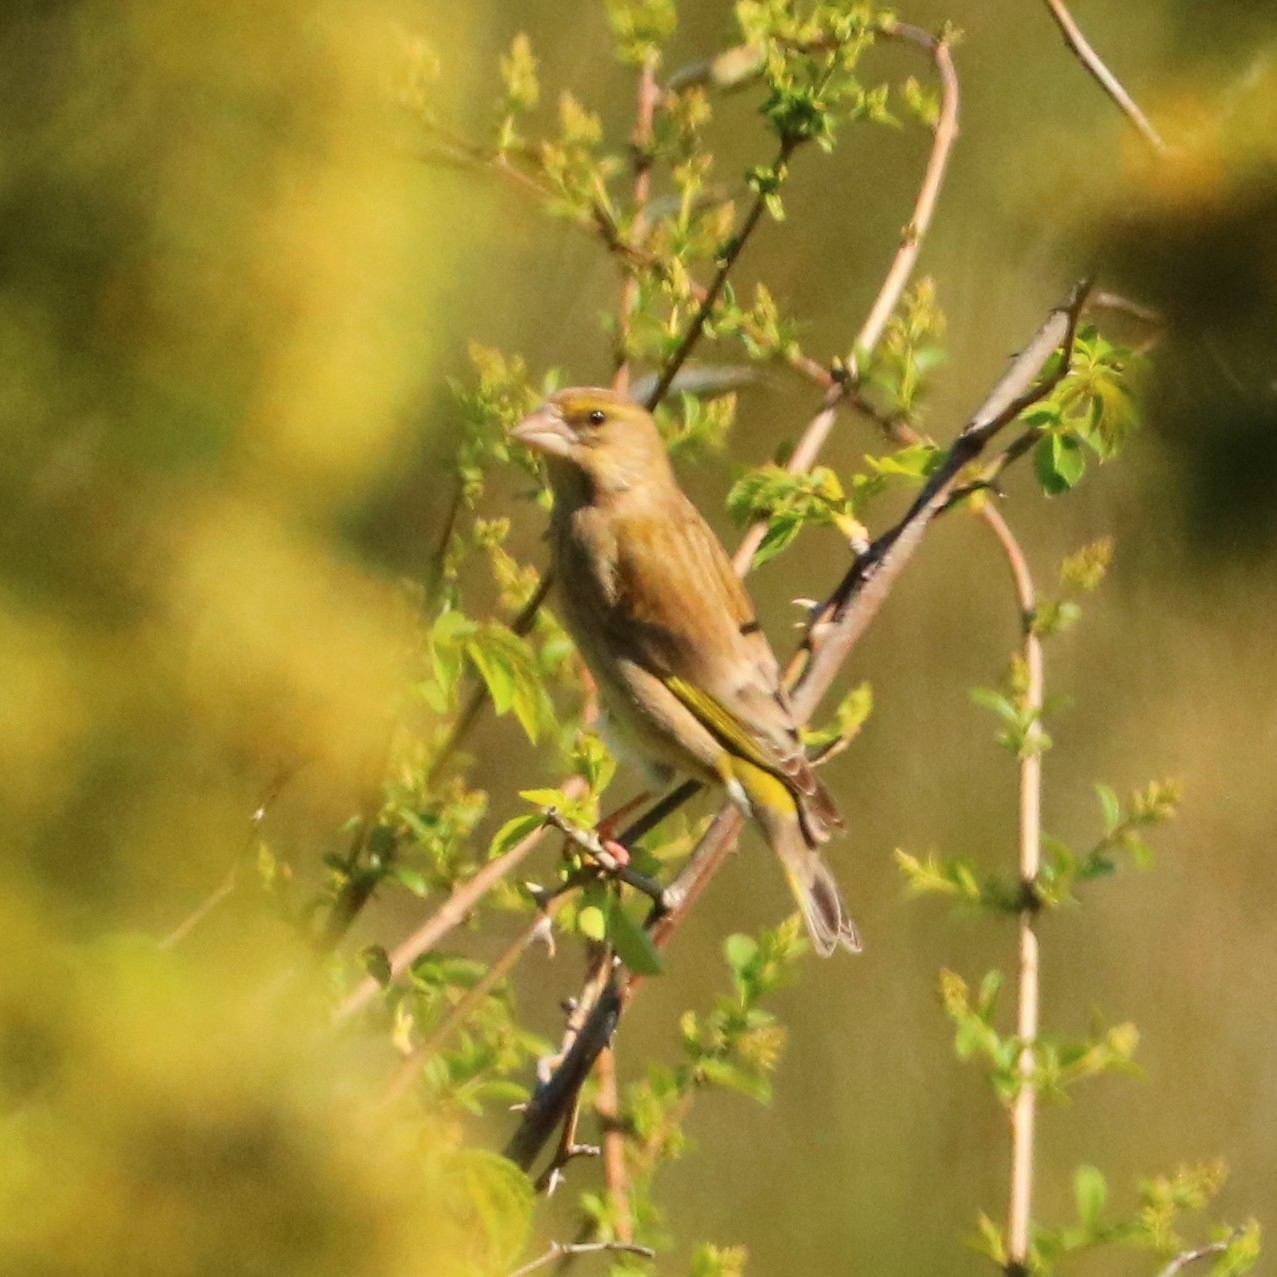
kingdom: Plantae
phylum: Tracheophyta
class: Liliopsida
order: Poales
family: Poaceae
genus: Chloris
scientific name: Chloris chloris
